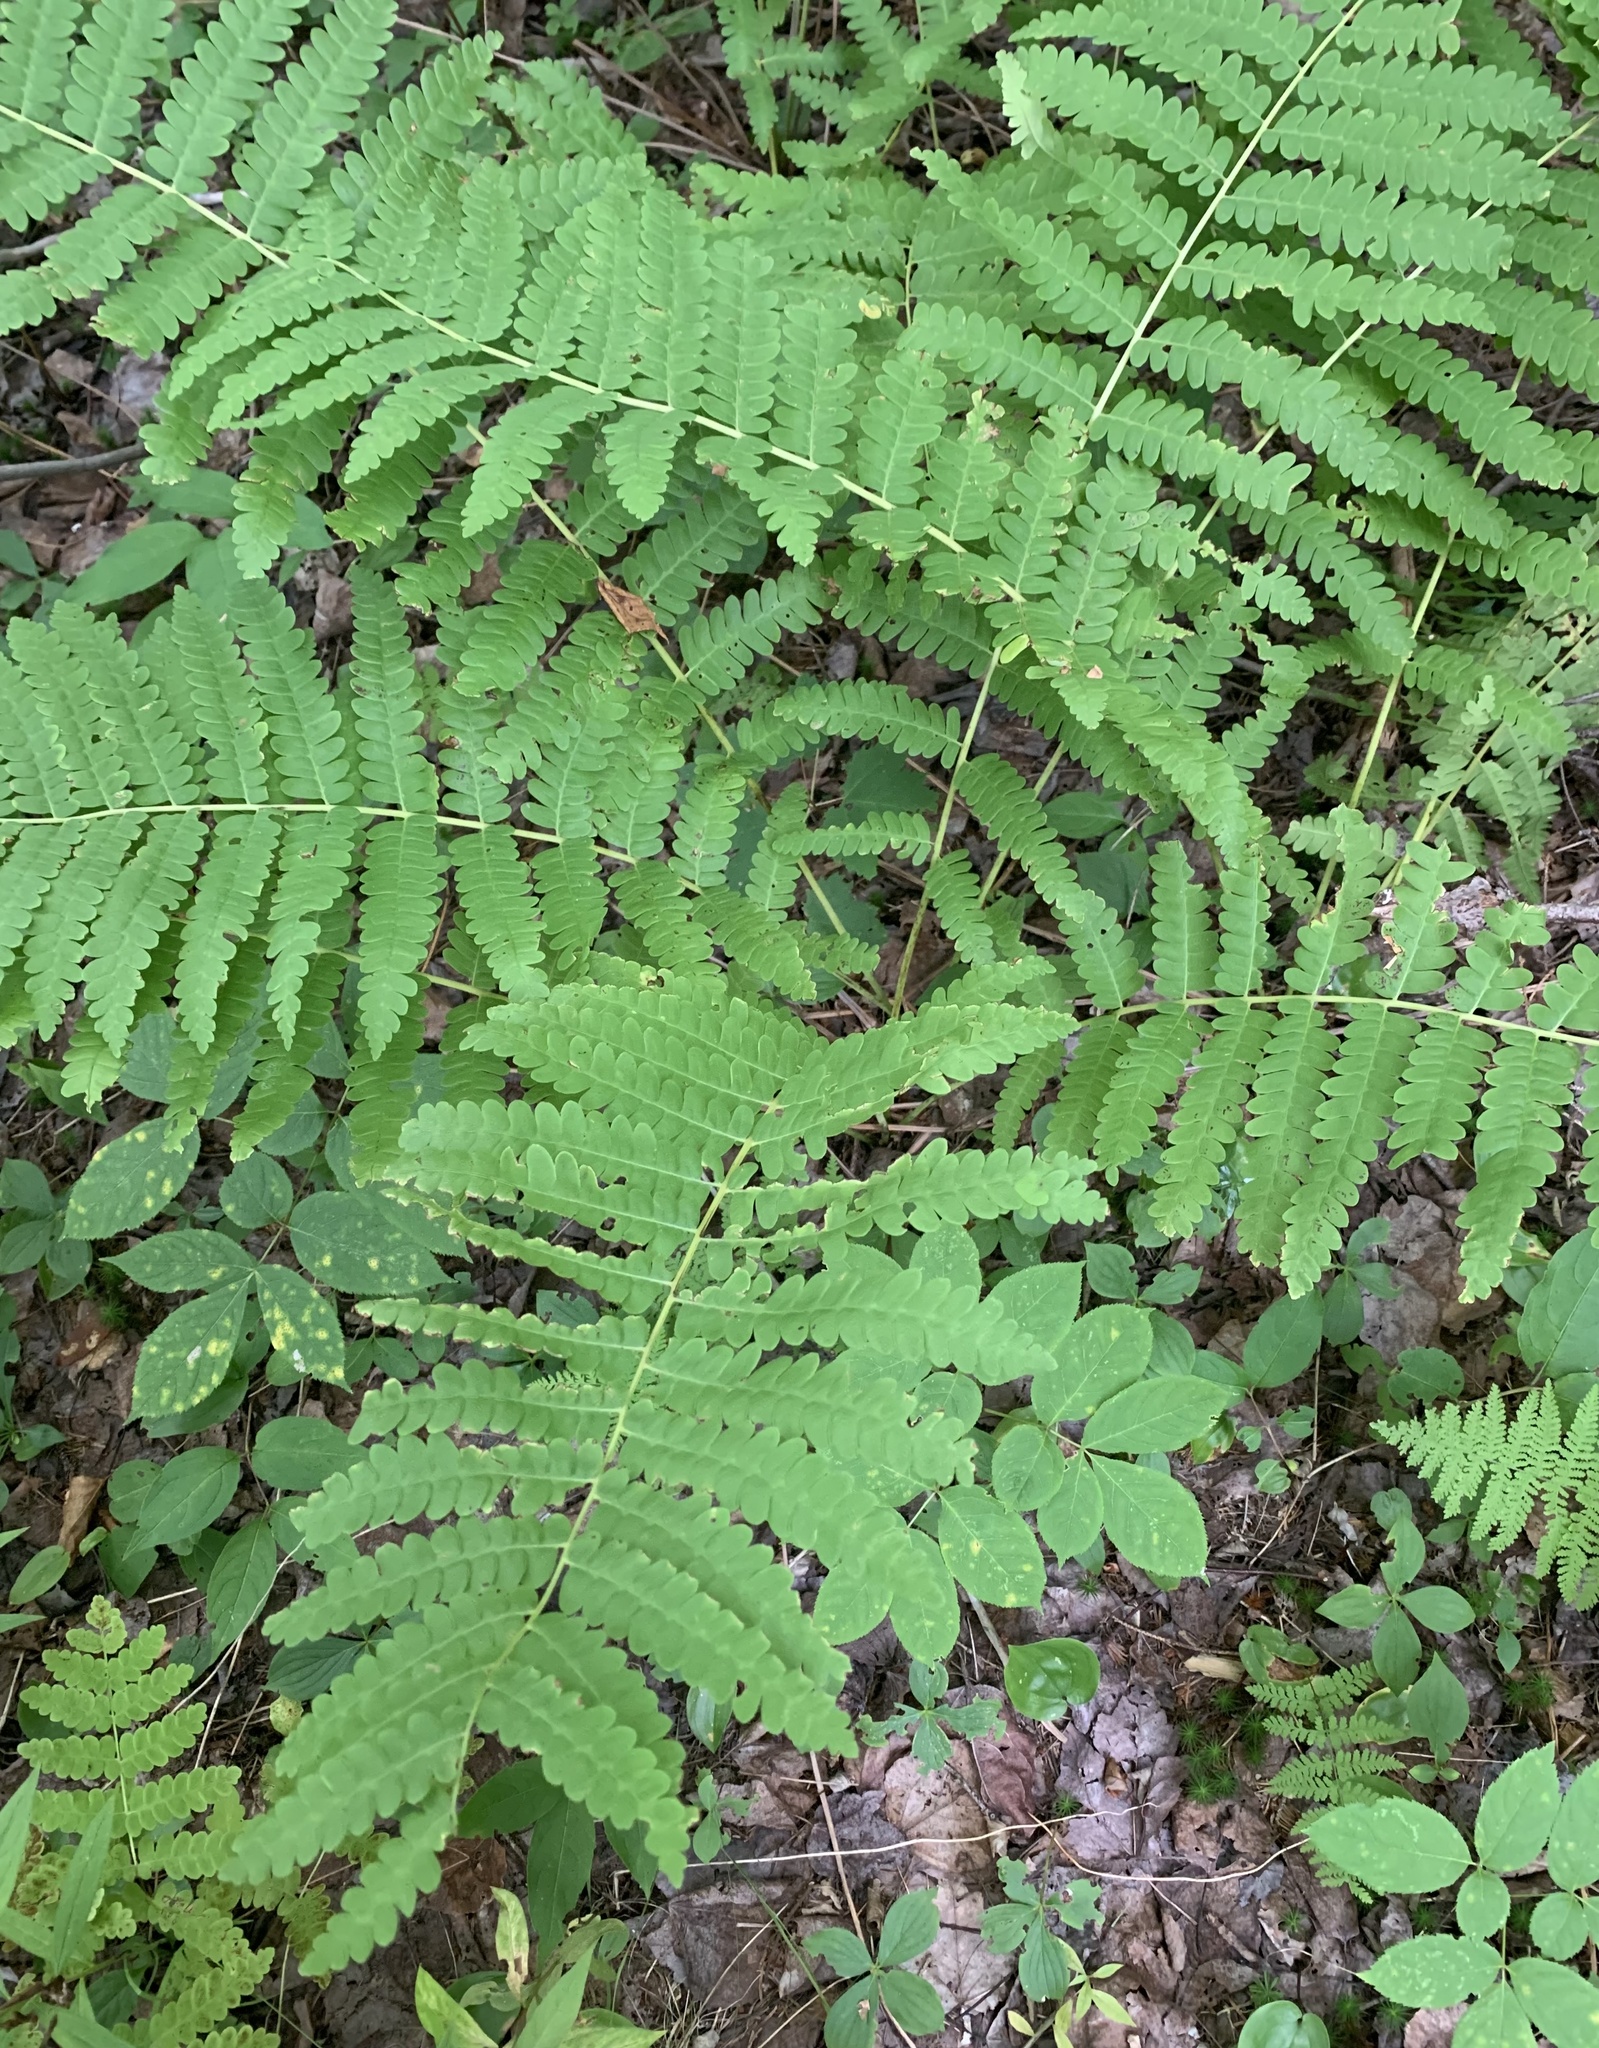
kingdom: Plantae
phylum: Tracheophyta
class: Polypodiopsida
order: Osmundales
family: Osmundaceae
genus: Claytosmunda
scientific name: Claytosmunda claytoniana
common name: Clayton's fern
